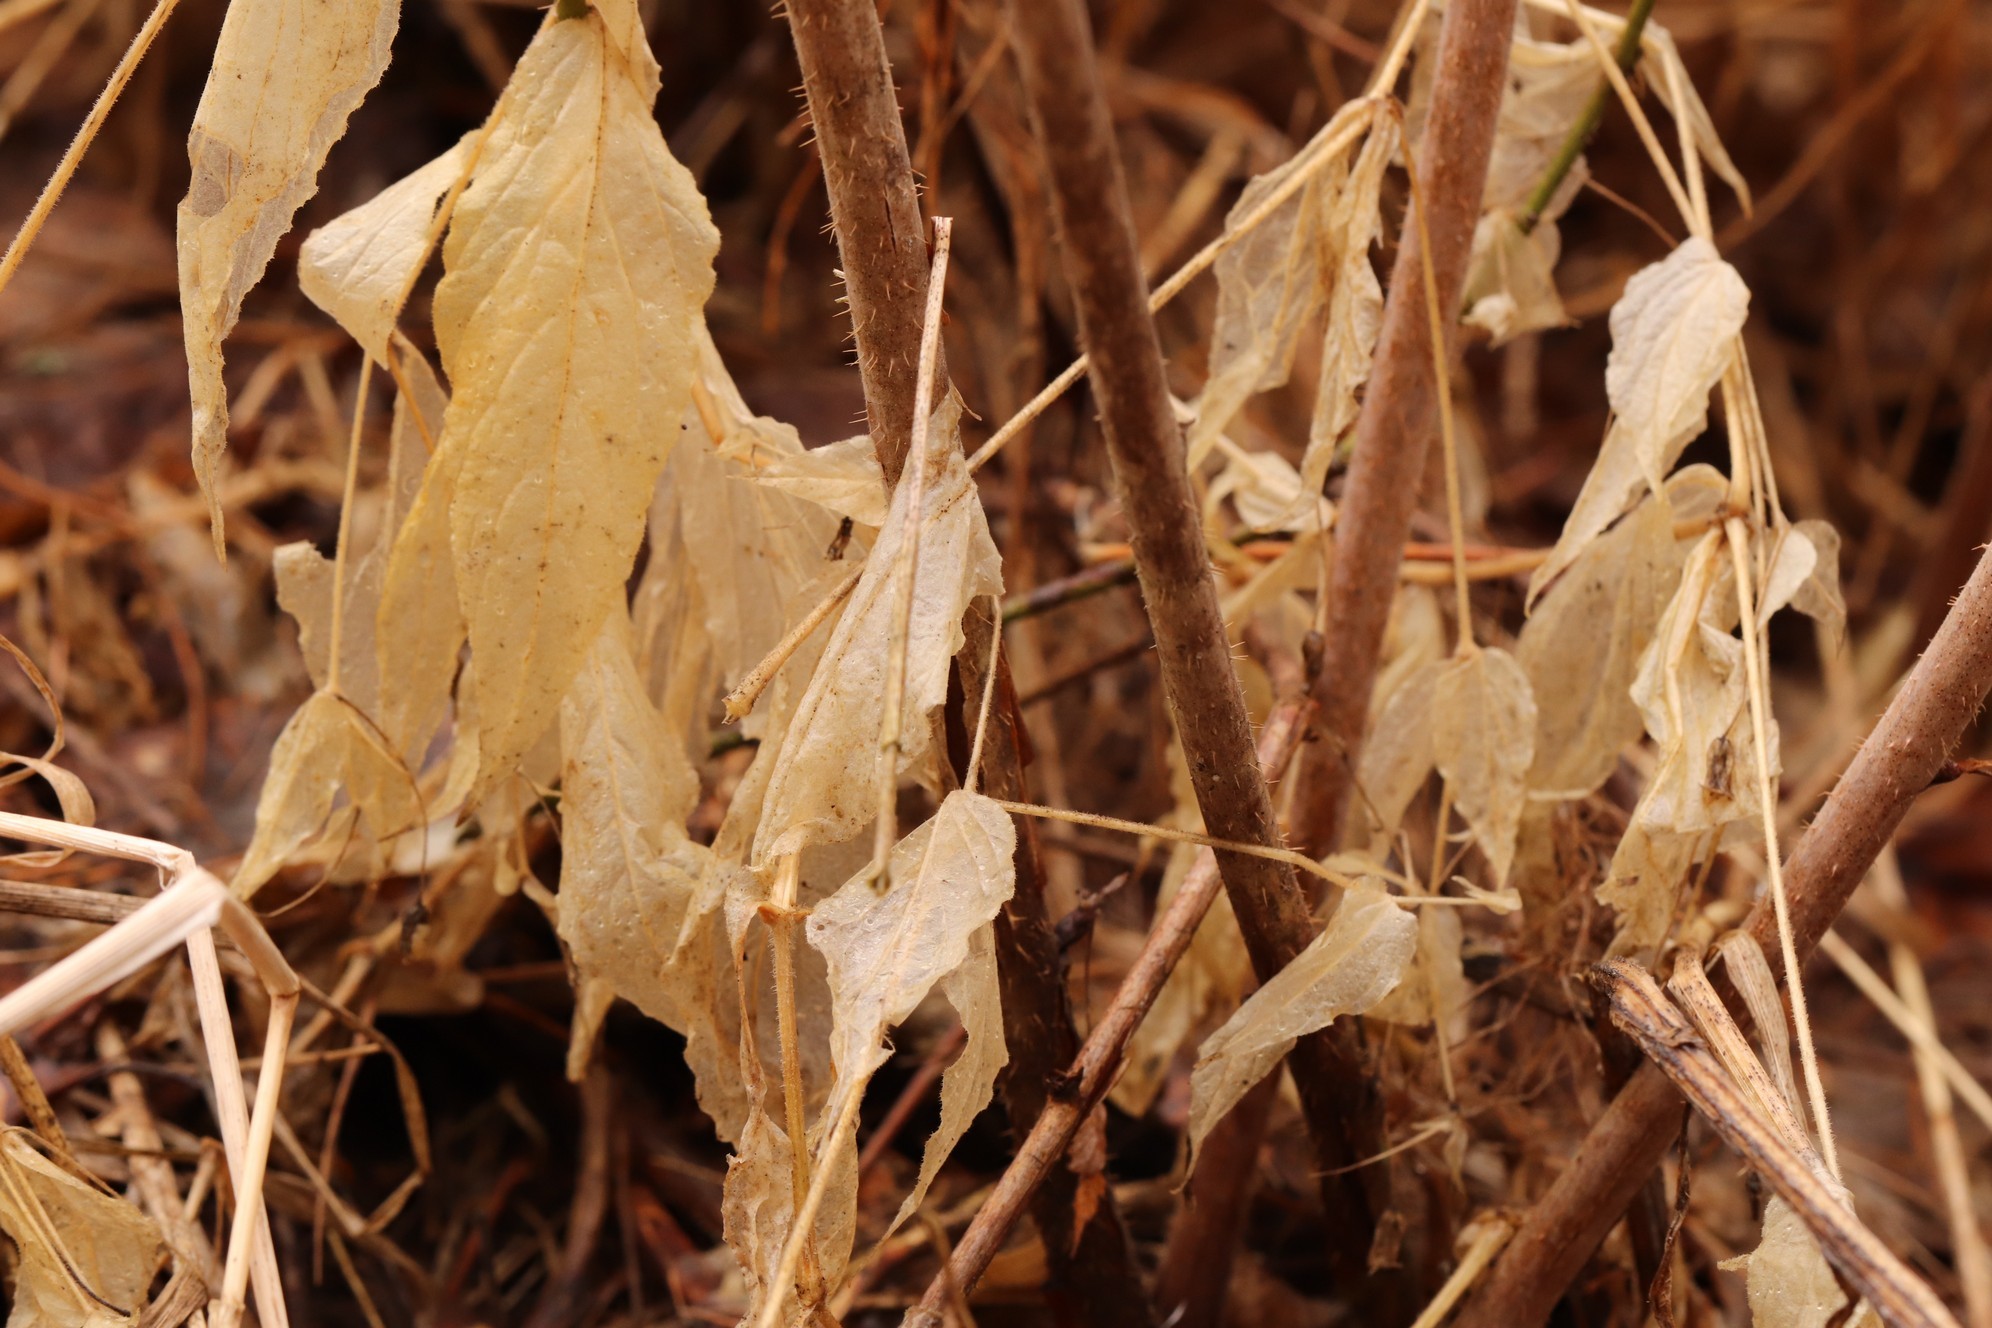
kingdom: Plantae
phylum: Tracheophyta
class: Magnoliopsida
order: Caryophyllales
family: Caryophyllaceae
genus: Stellaria
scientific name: Stellaria bungeana
